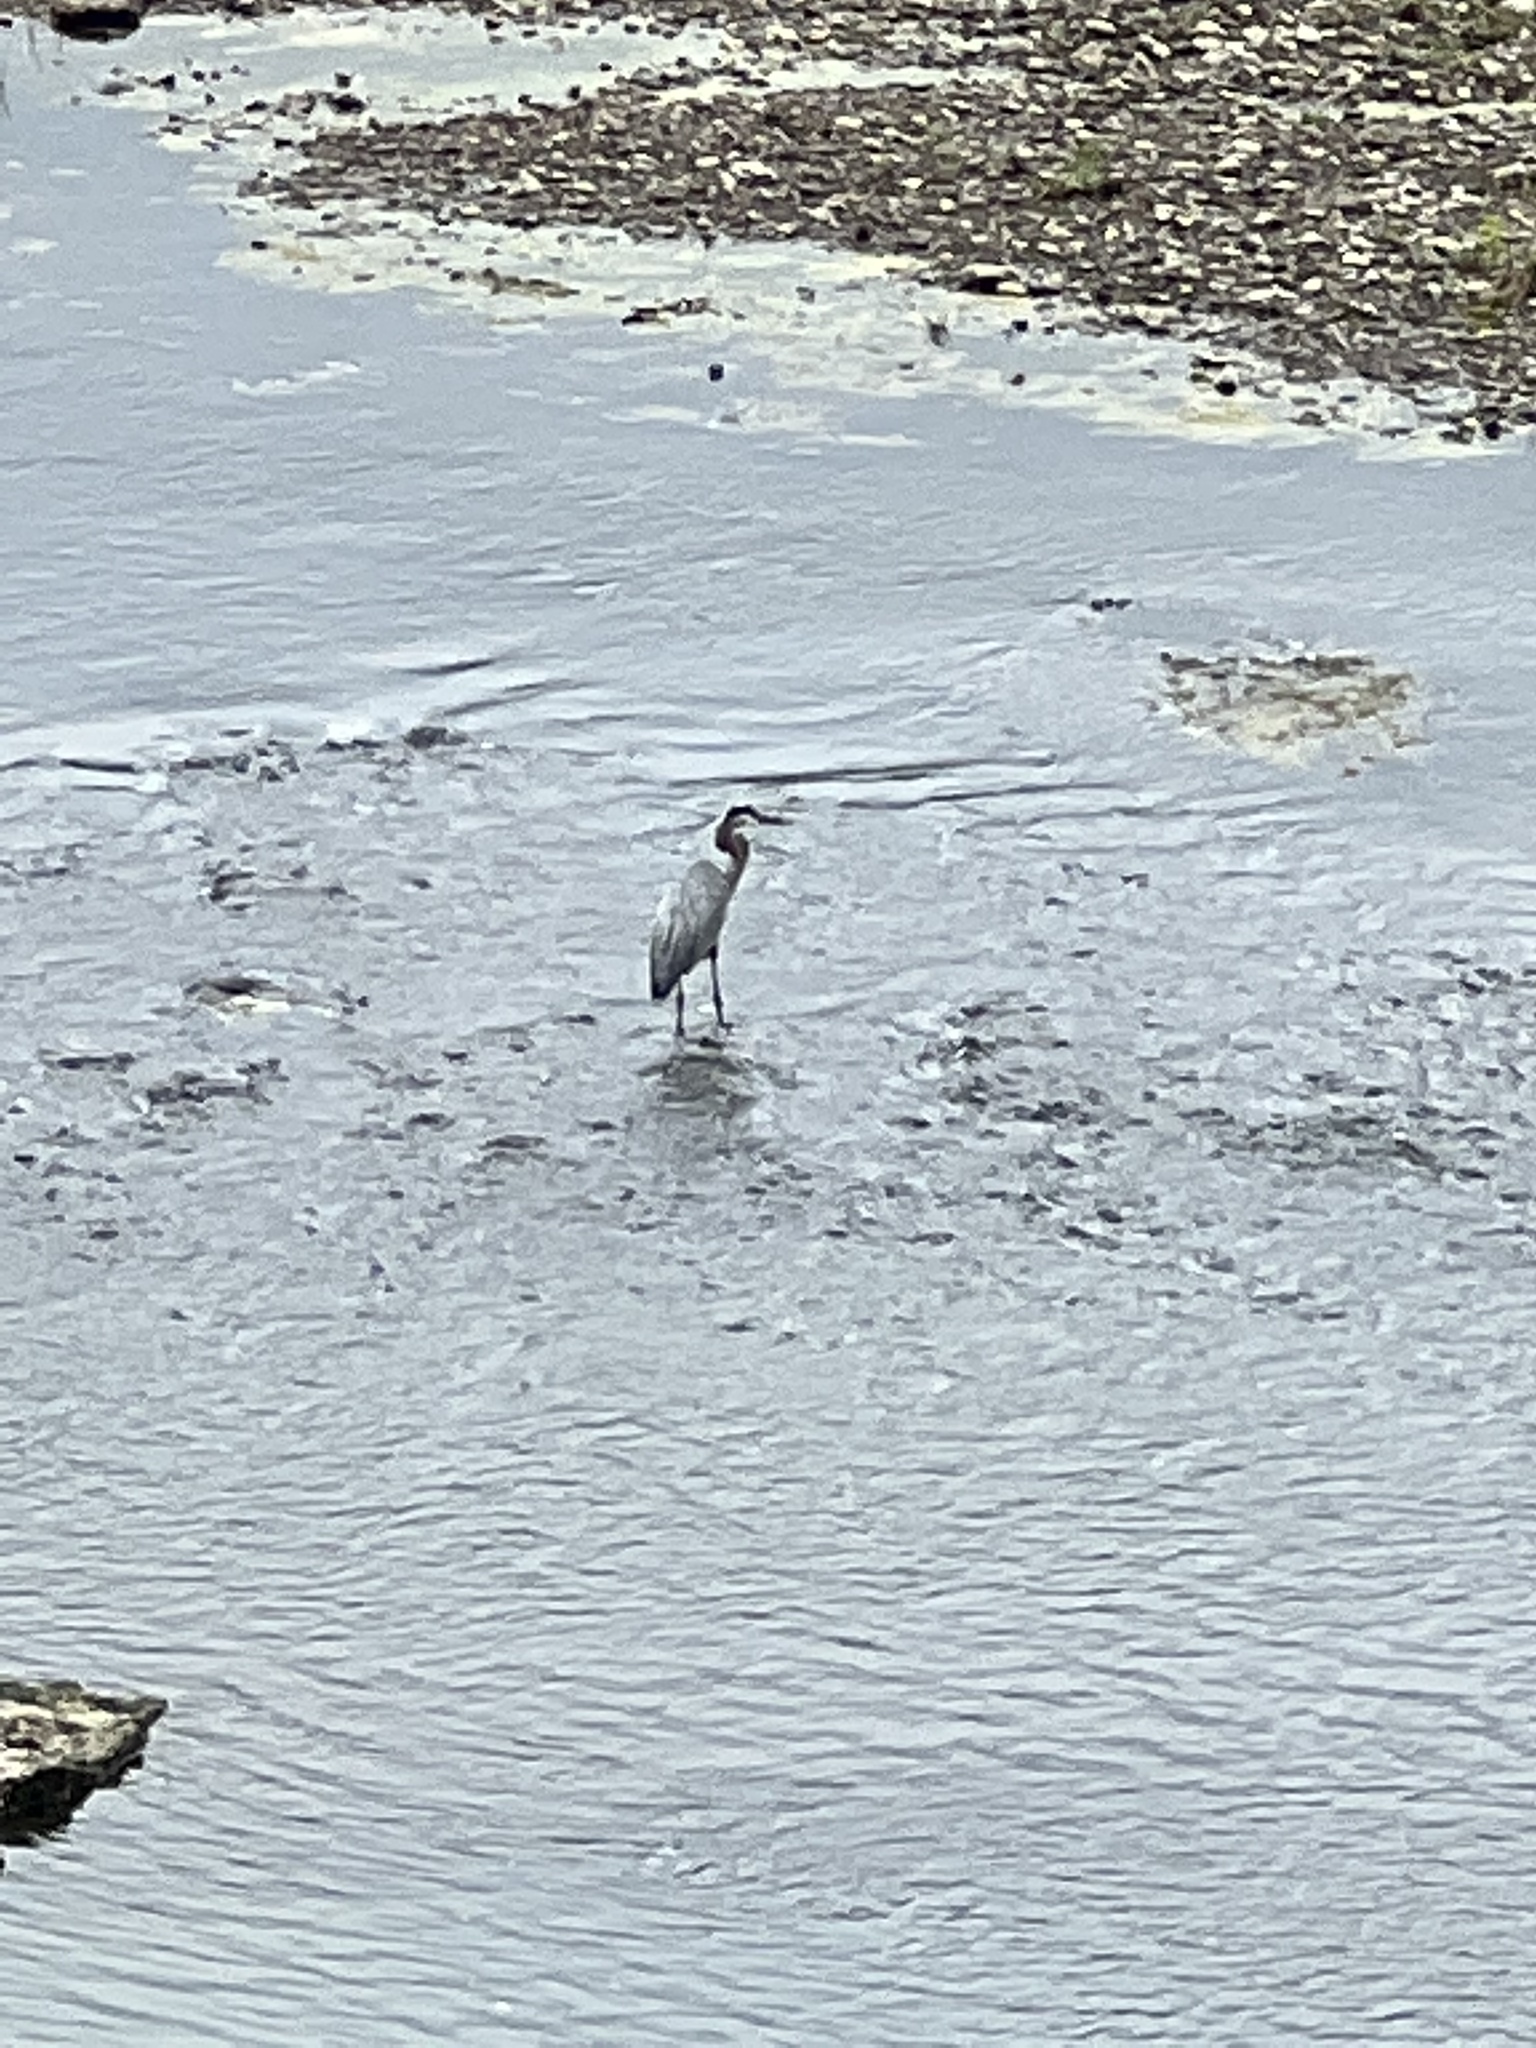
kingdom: Animalia
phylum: Chordata
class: Aves
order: Pelecaniformes
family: Ardeidae
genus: Ardea
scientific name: Ardea herodias
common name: Great blue heron
